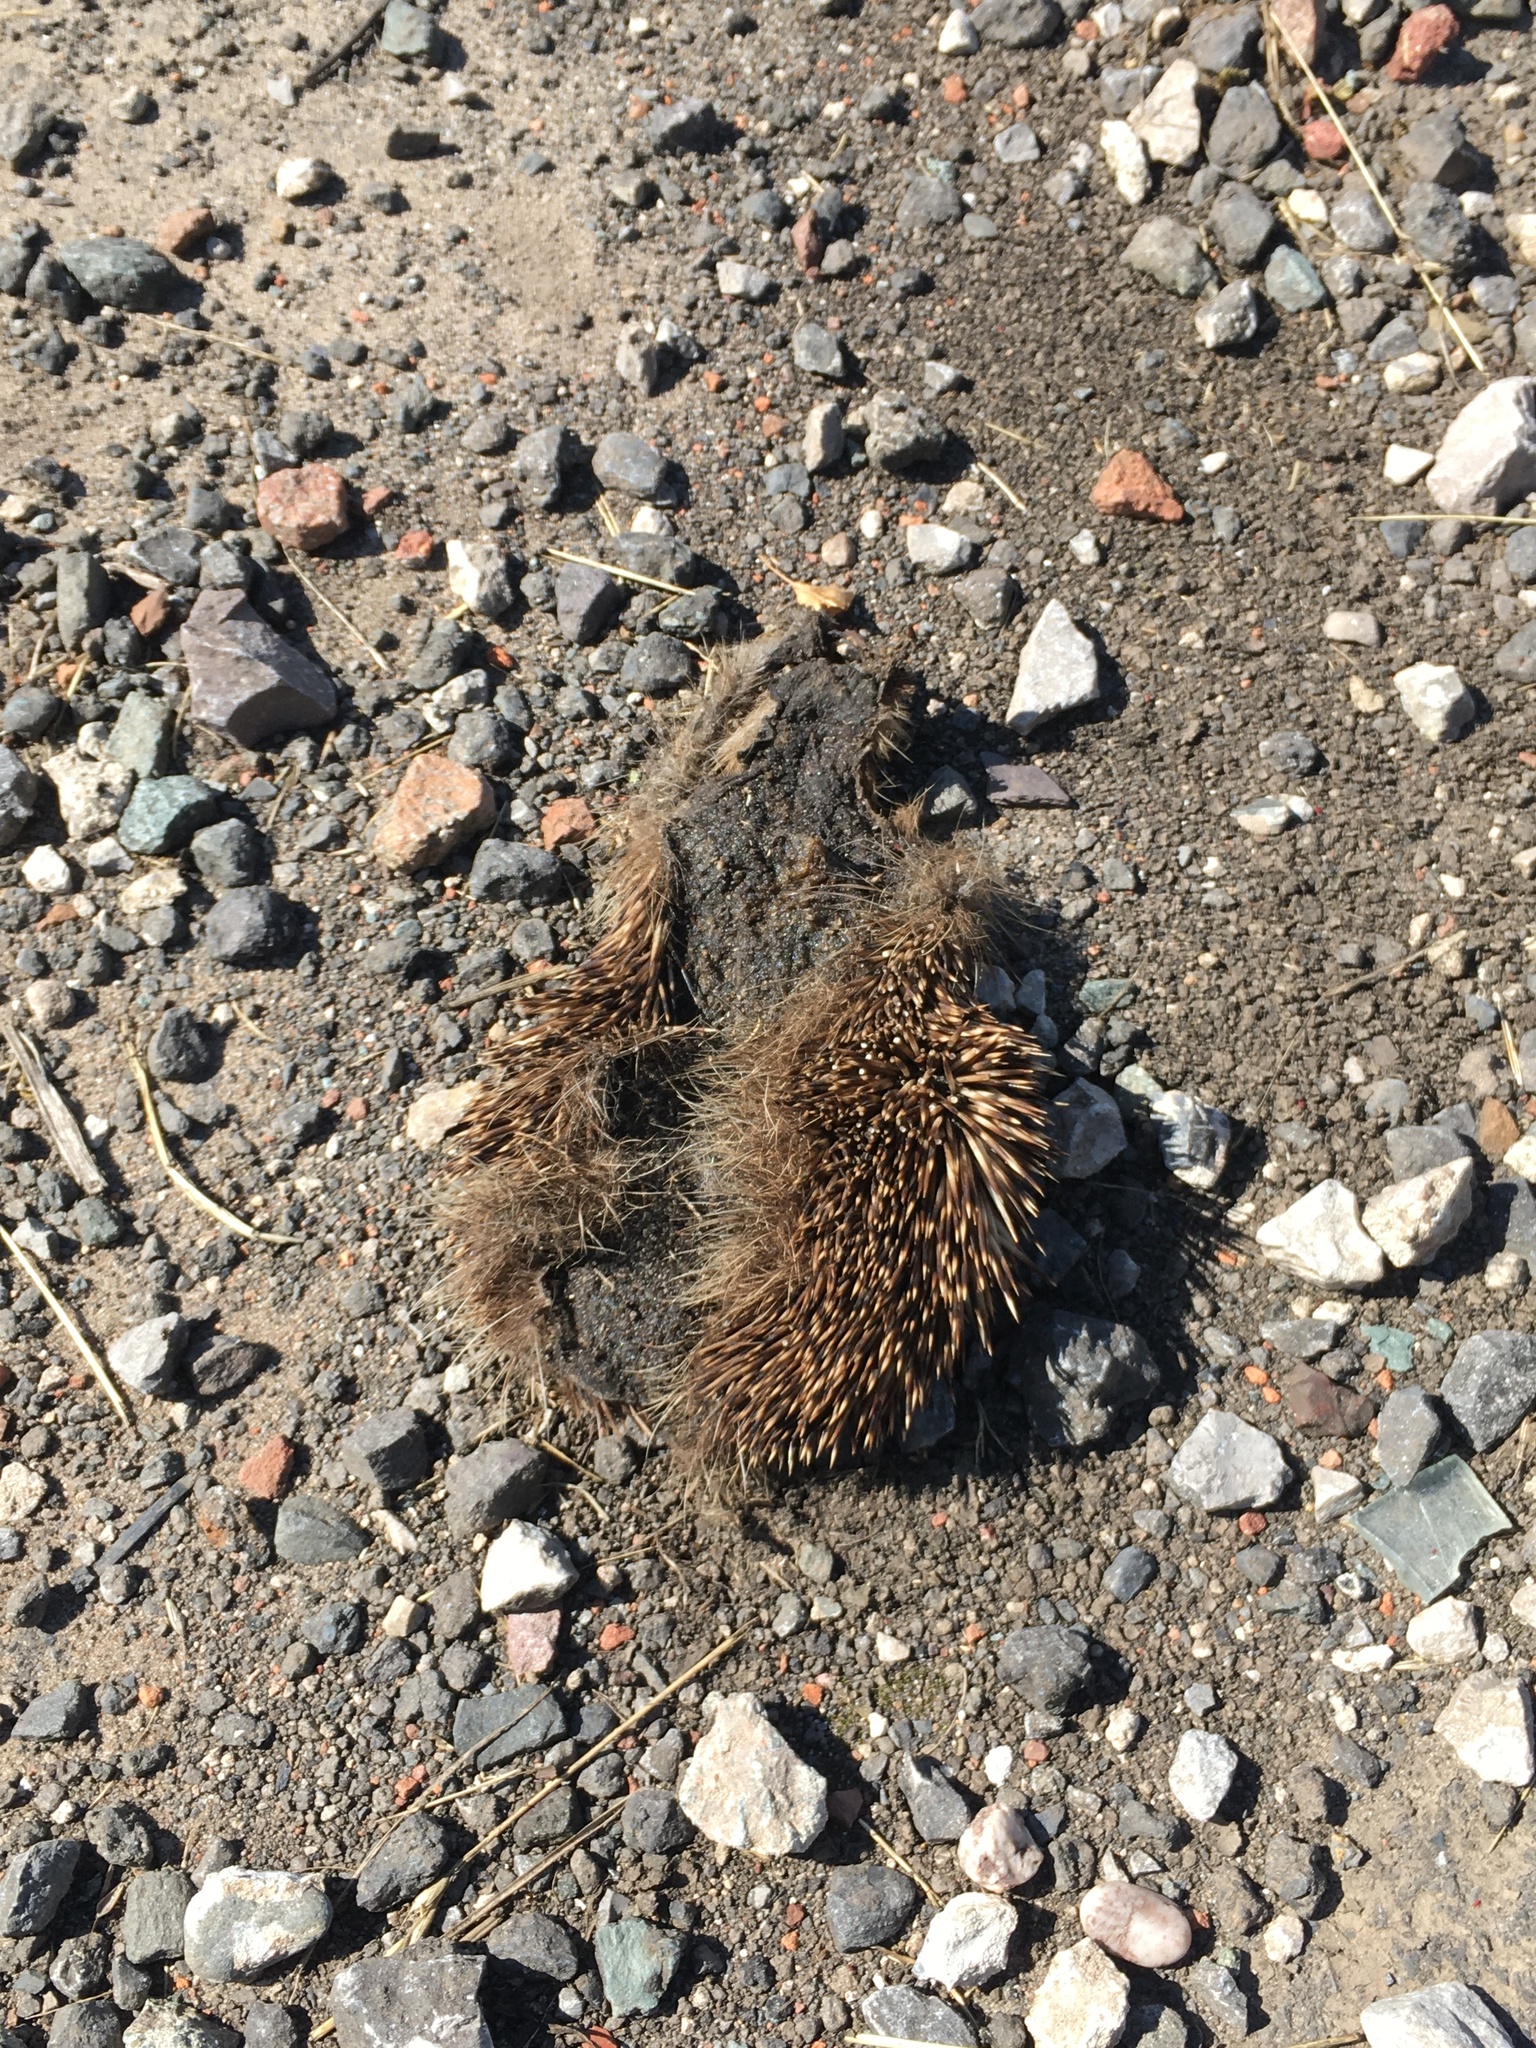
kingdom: Animalia
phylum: Chordata
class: Mammalia
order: Erinaceomorpha
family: Erinaceidae
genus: Erinaceus
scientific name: Erinaceus europaeus
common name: West european hedgehog
